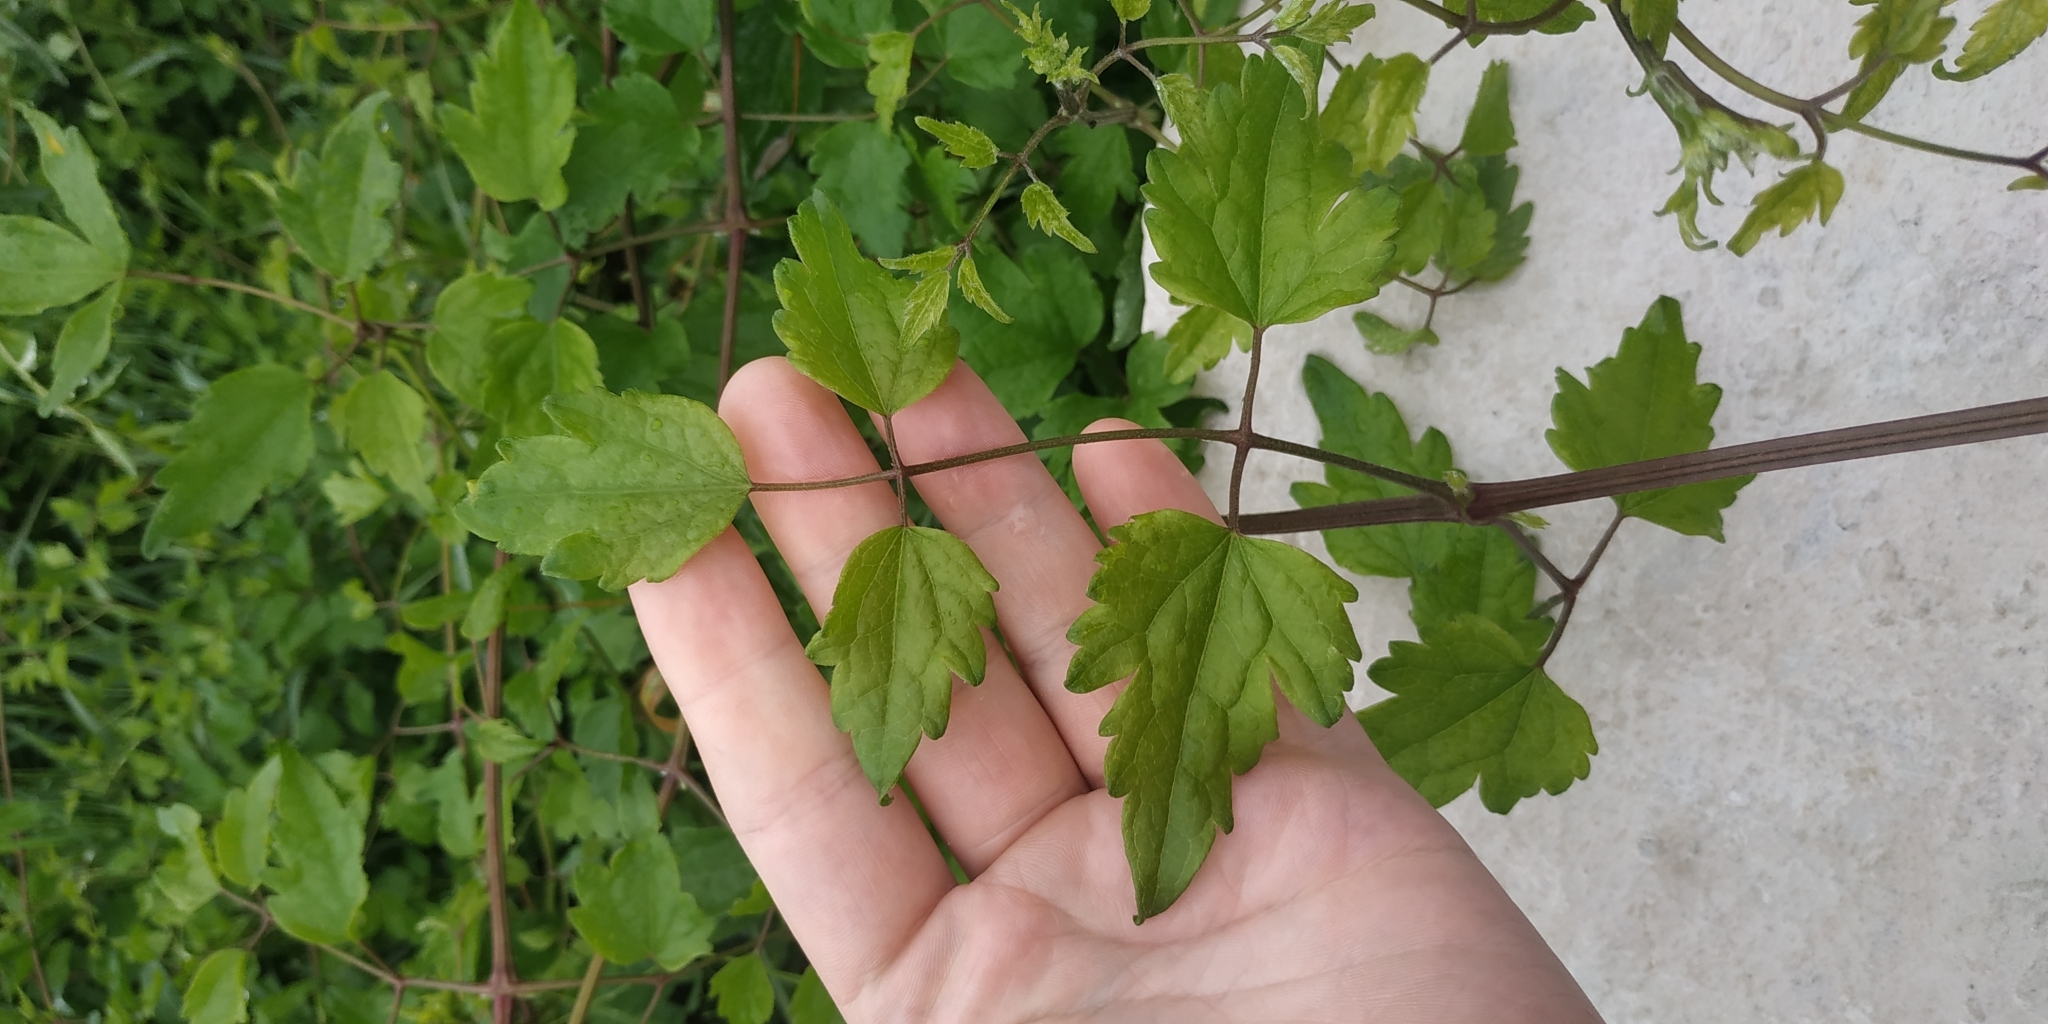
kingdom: Plantae
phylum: Tracheophyta
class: Magnoliopsida
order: Ranunculales
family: Ranunculaceae
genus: Clematis
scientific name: Clematis vitalba
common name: Evergreen clematis
